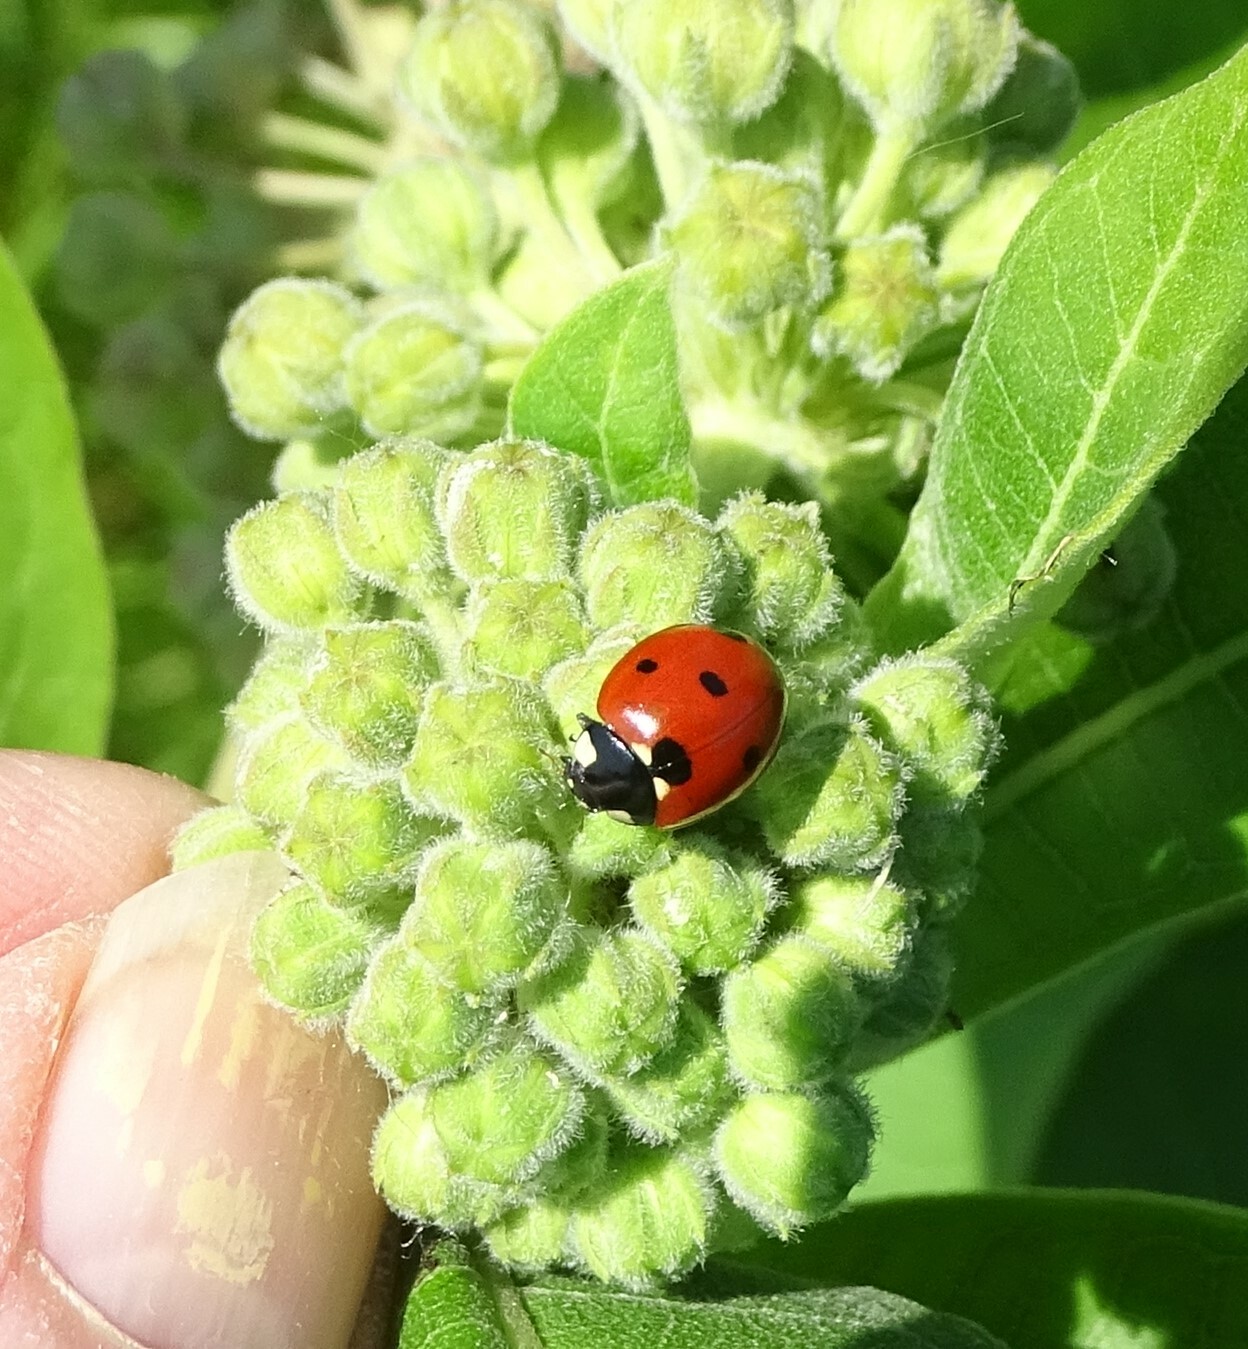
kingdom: Animalia
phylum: Arthropoda
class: Insecta
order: Coleoptera
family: Coccinellidae
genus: Coccinella
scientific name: Coccinella septempunctata
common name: Sevenspotted lady beetle
